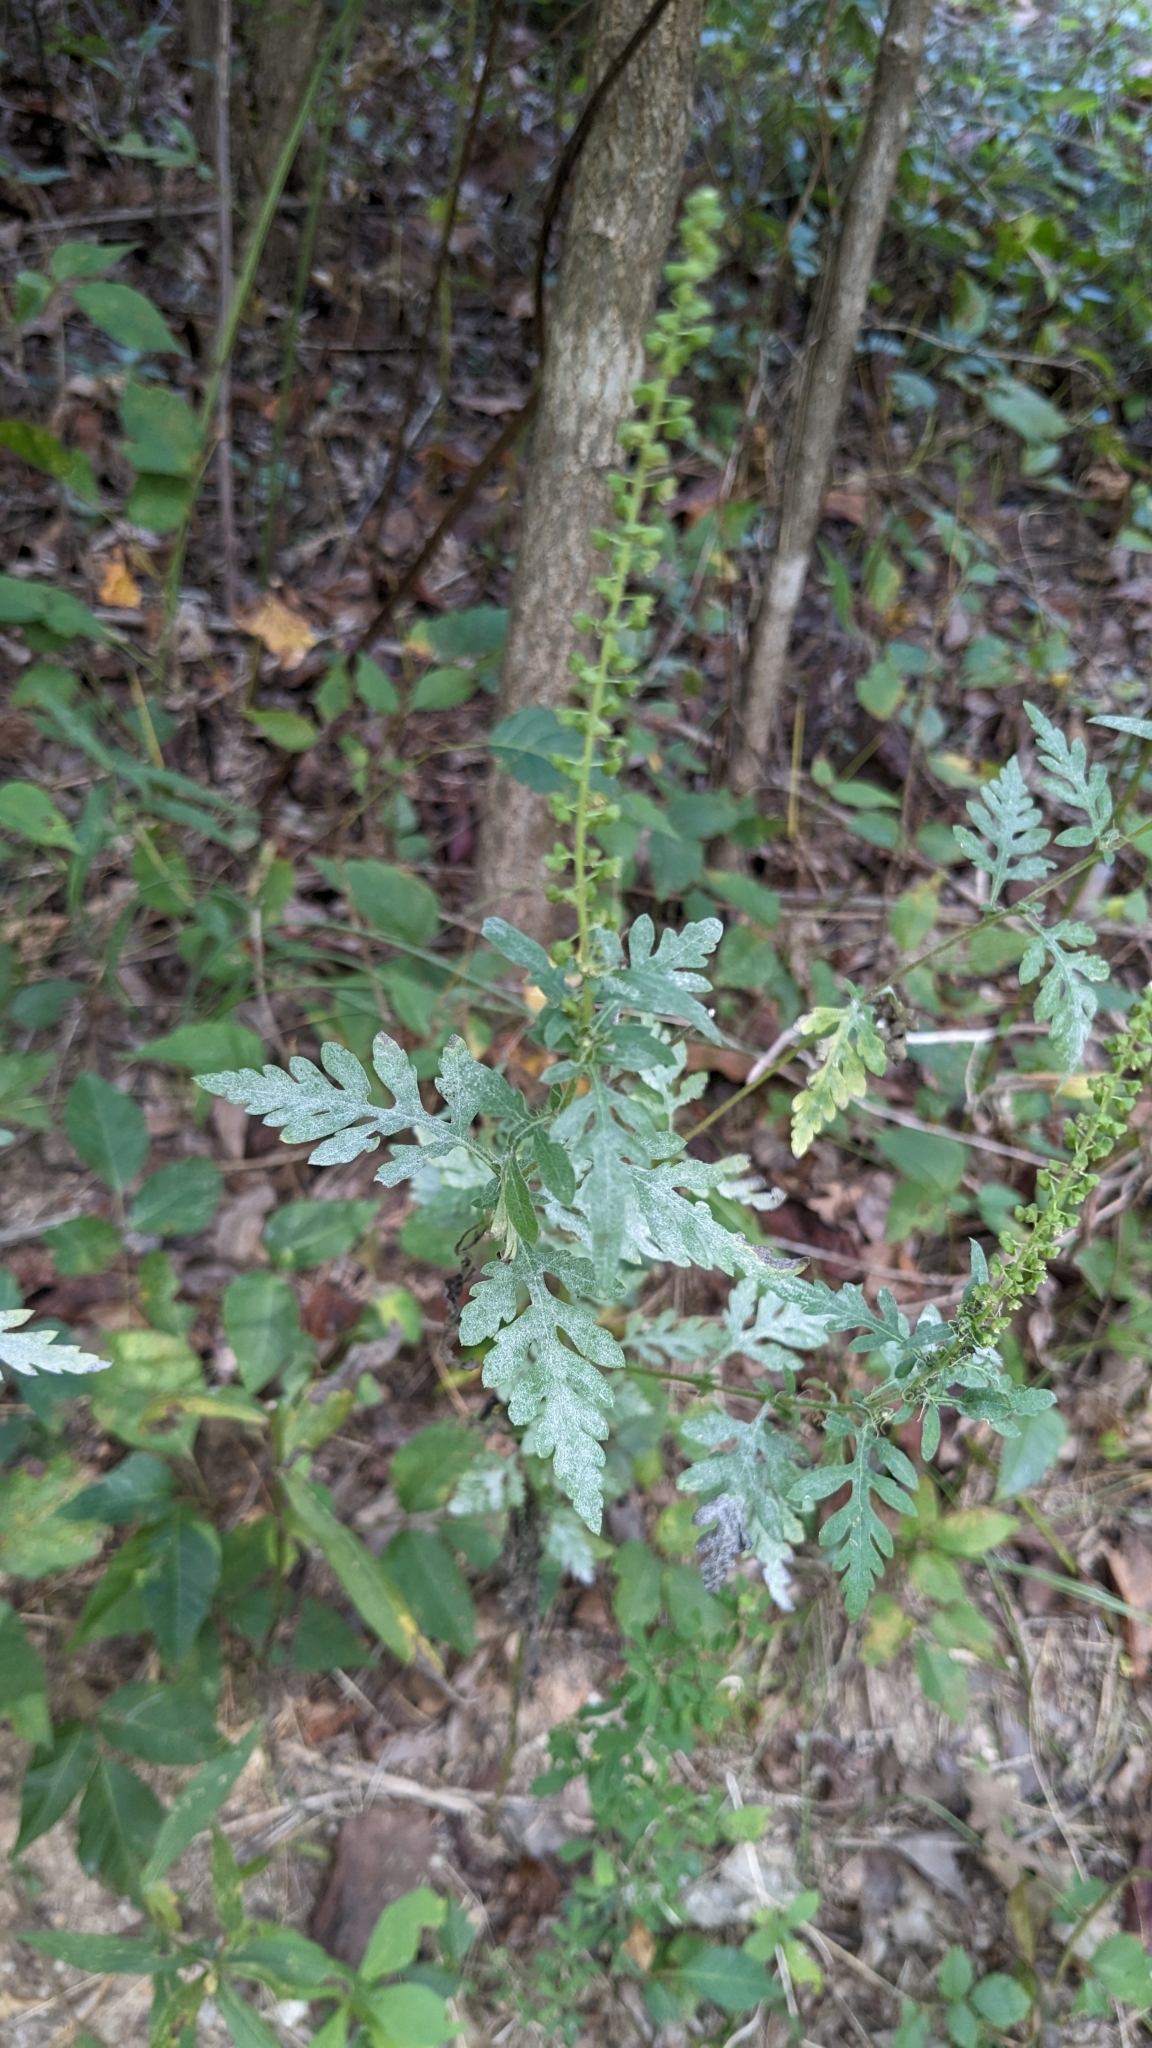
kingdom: Plantae
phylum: Tracheophyta
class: Magnoliopsida
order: Asterales
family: Asteraceae
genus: Ambrosia
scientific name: Ambrosia artemisiifolia
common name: Annual ragweed
